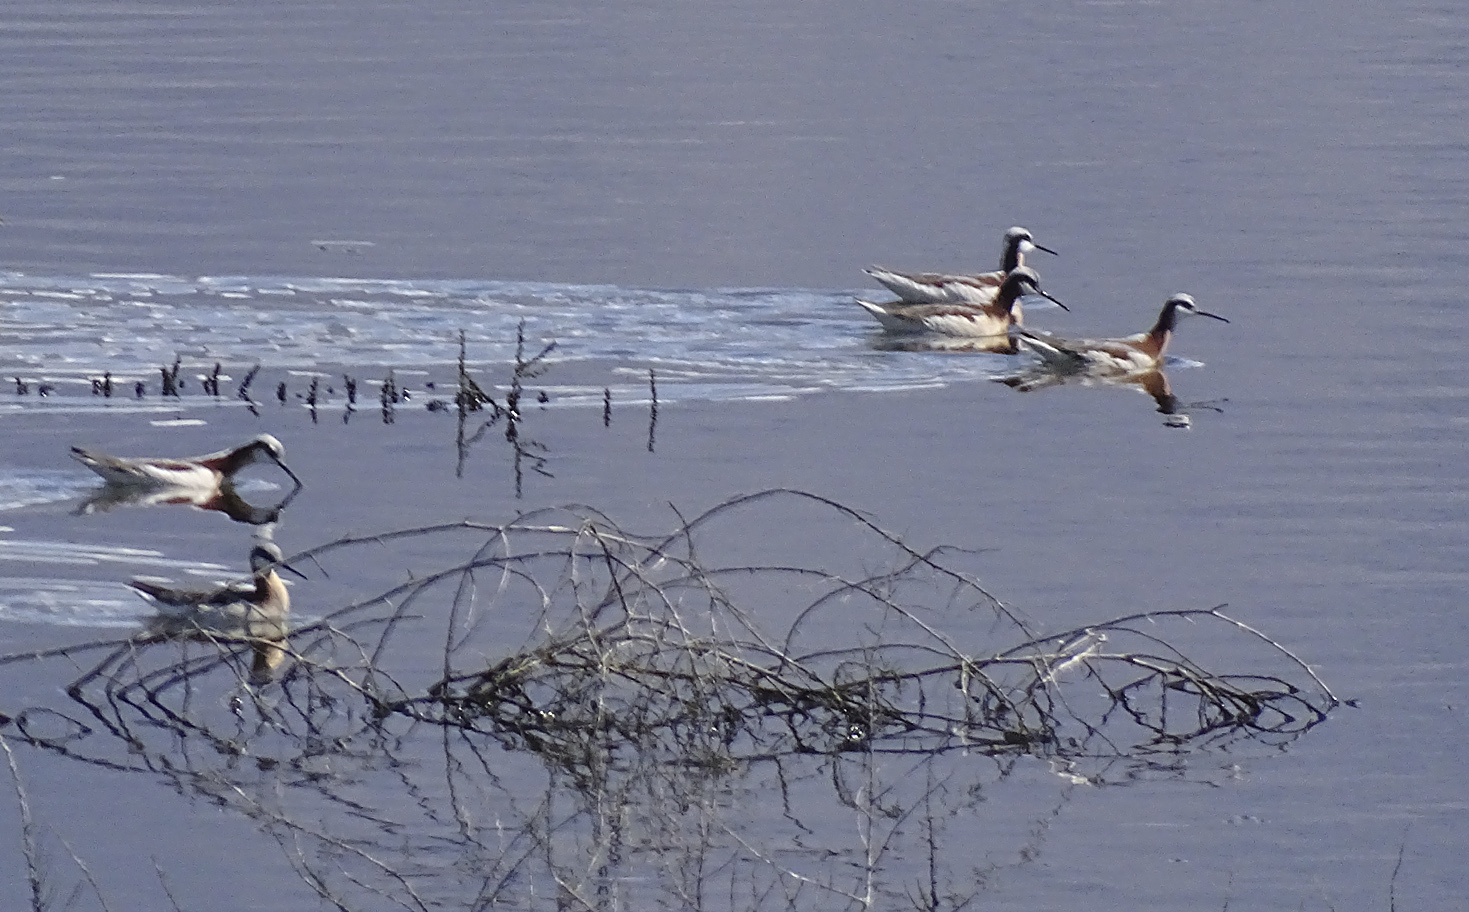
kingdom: Animalia
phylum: Chordata
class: Aves
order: Charadriiformes
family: Scolopacidae
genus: Phalaropus
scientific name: Phalaropus tricolor
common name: Wilson's phalarope
